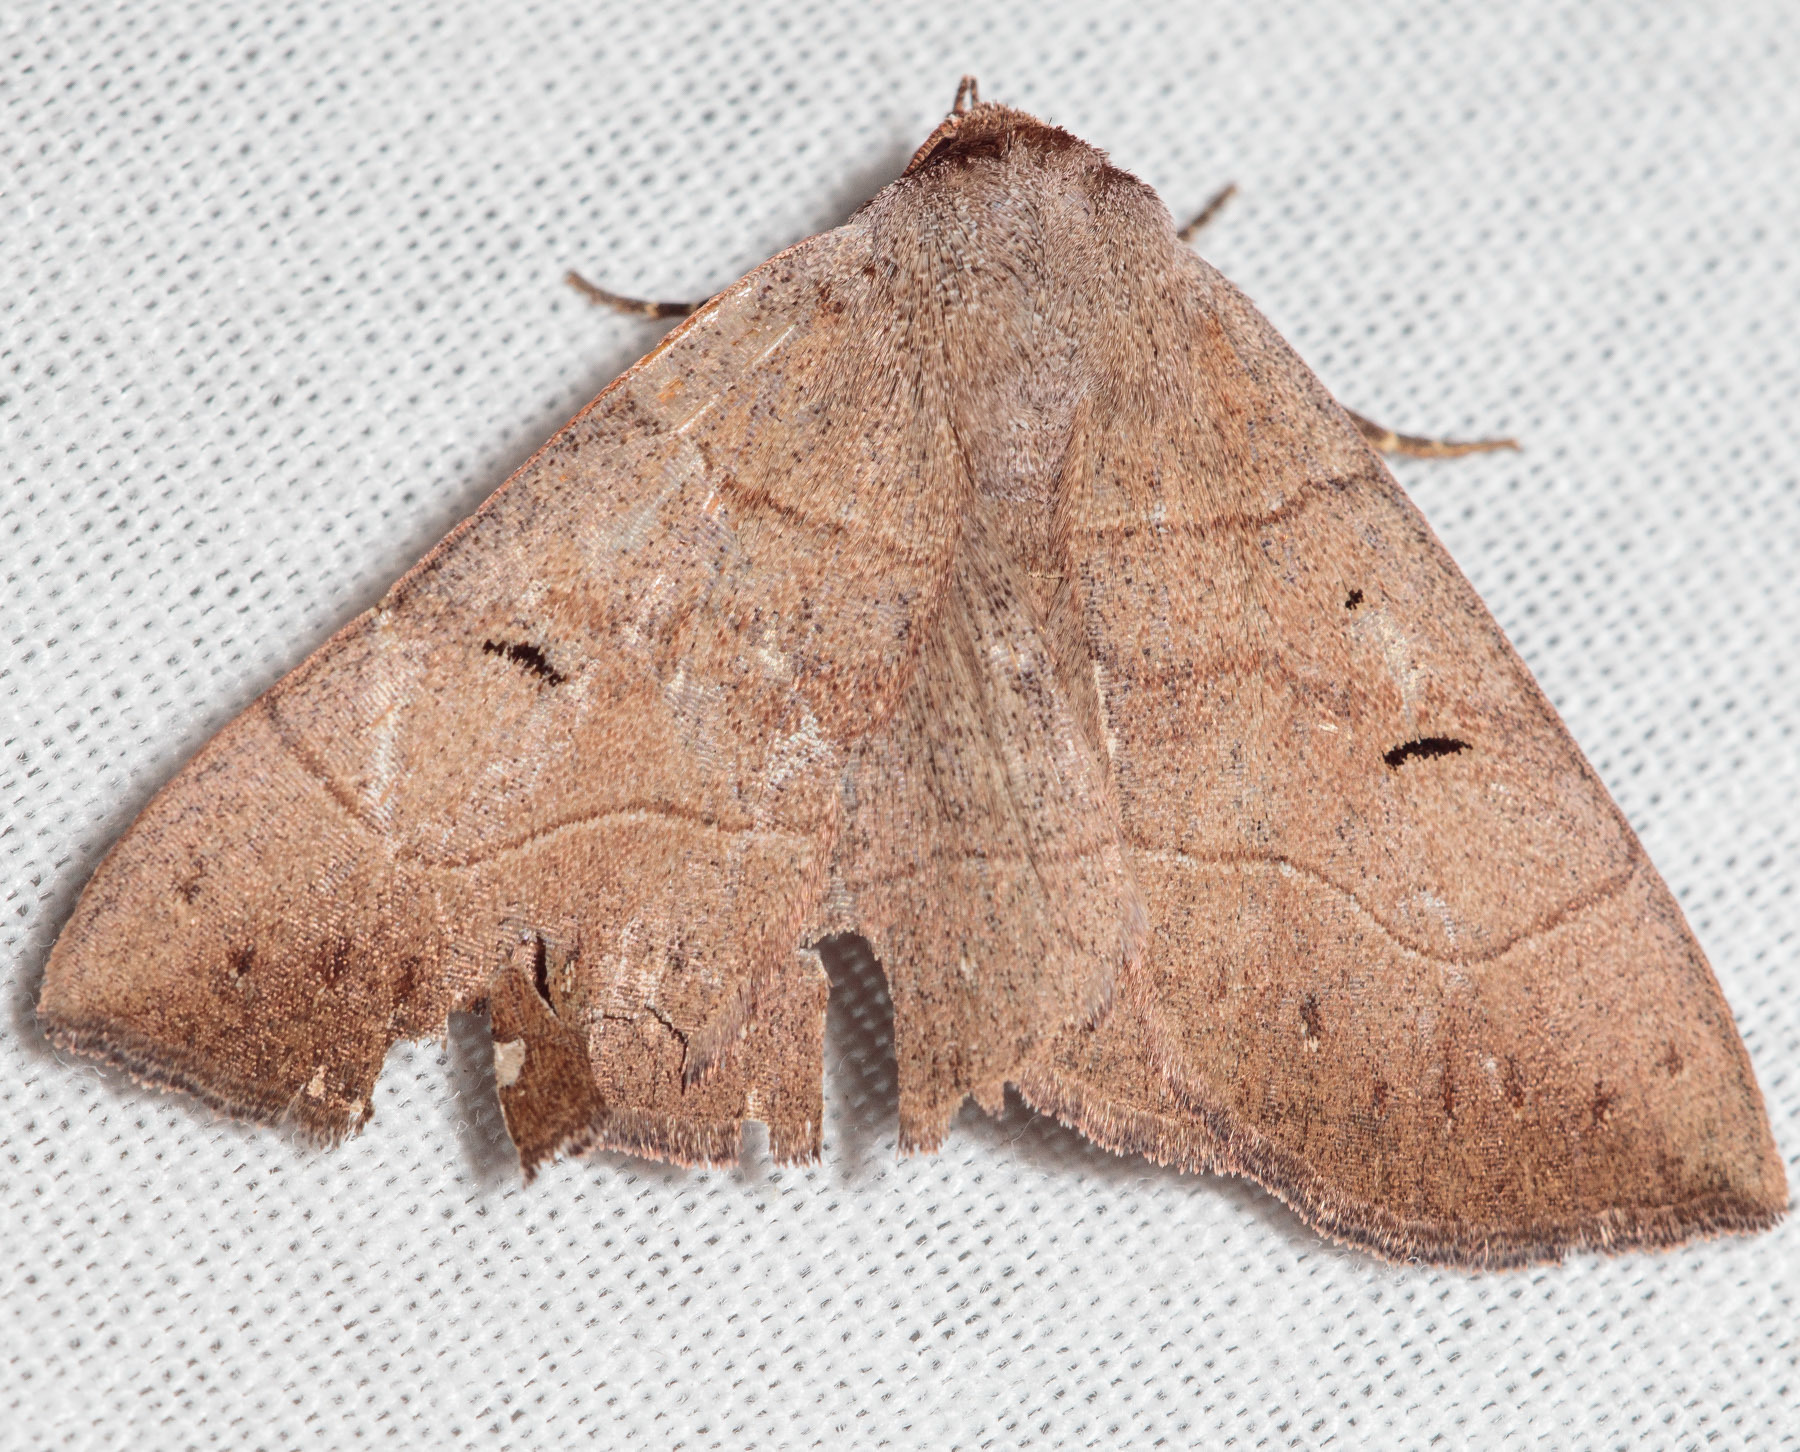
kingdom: Animalia
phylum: Arthropoda
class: Insecta
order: Lepidoptera
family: Erebidae
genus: Panopoda
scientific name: Panopoda carneicosta
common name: Brown panopoda moth
